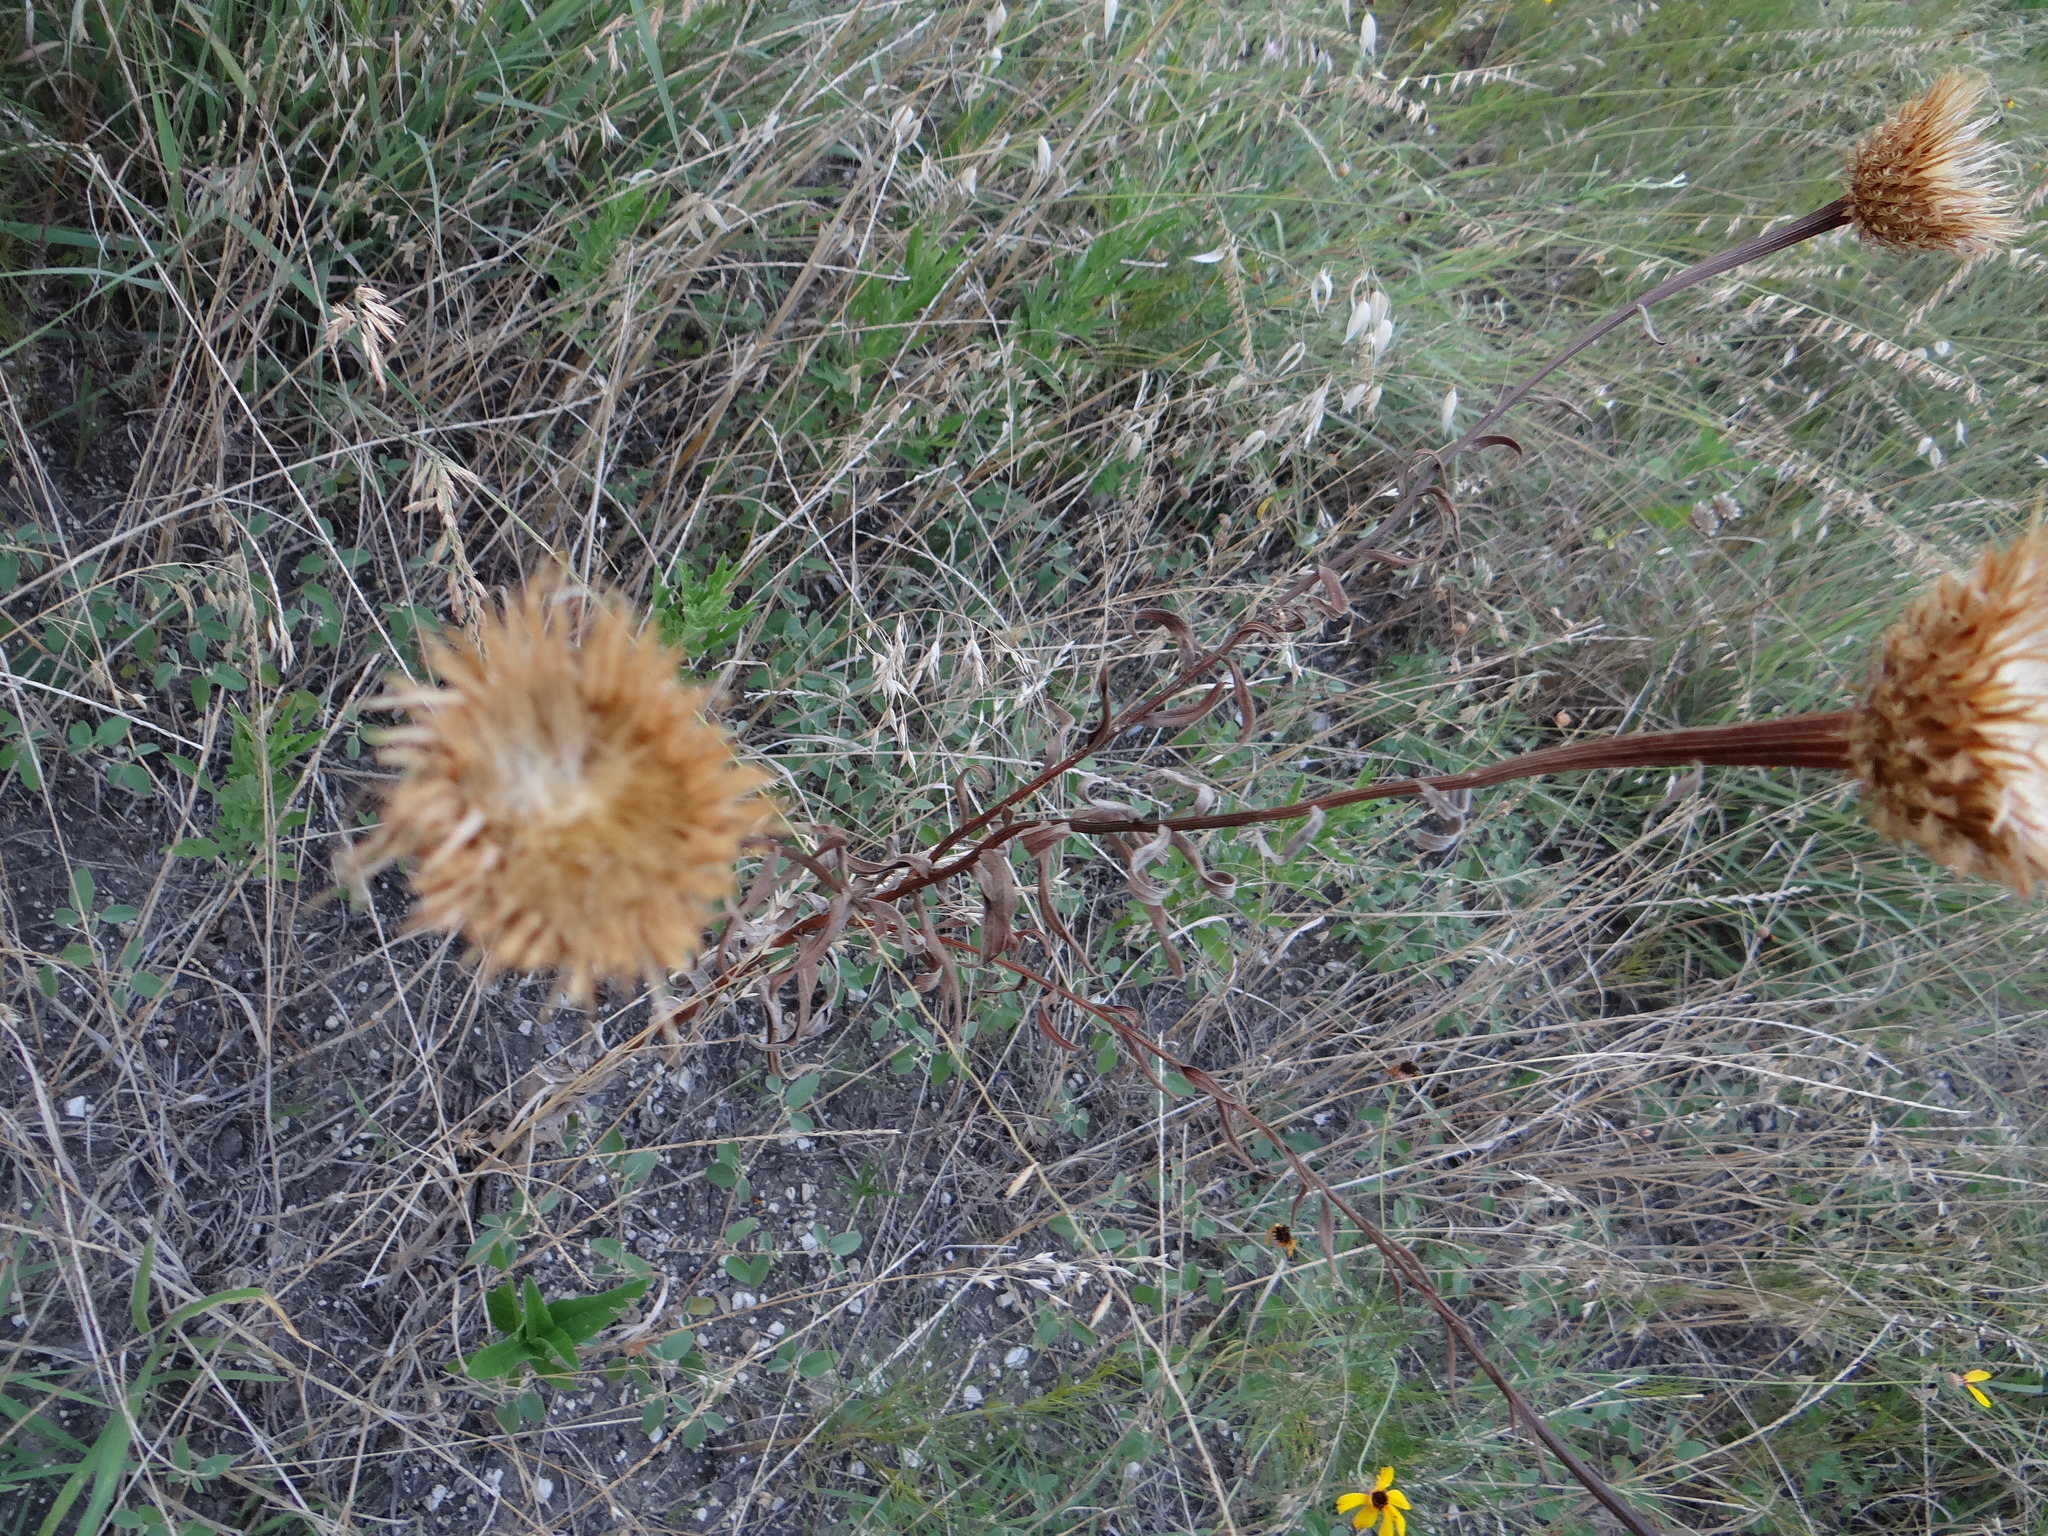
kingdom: Plantae
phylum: Tracheophyta
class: Magnoliopsida
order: Asterales
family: Asteraceae
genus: Plectocephalus
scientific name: Plectocephalus americanus
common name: American basket-flower
